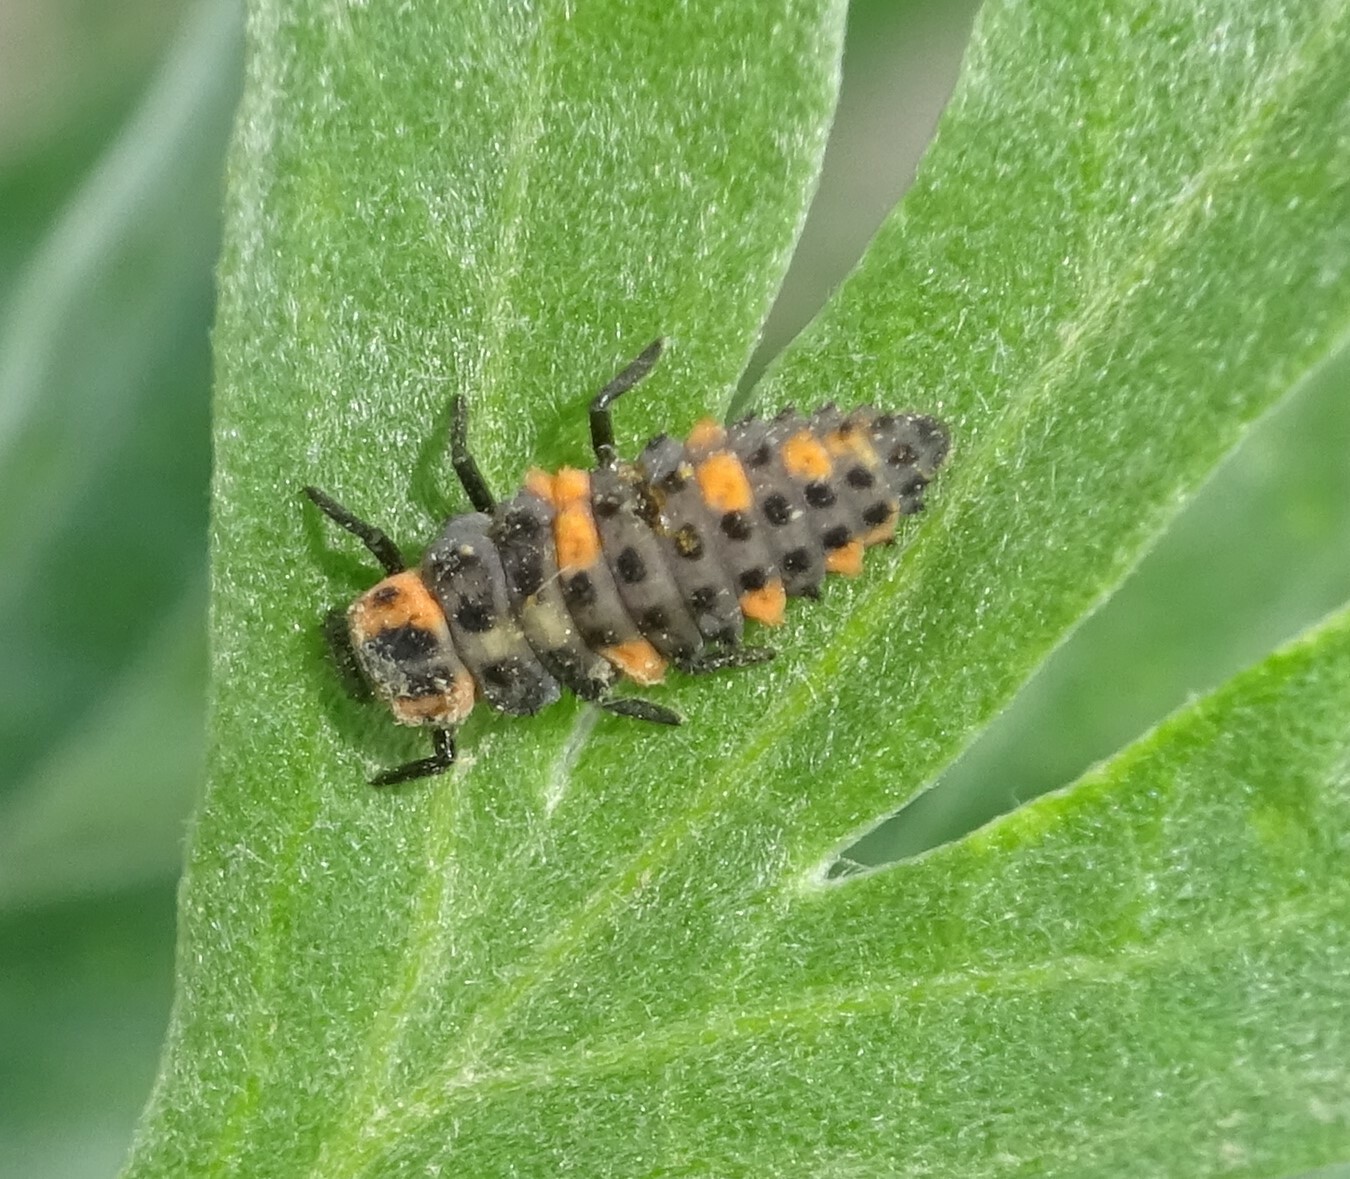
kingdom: Animalia
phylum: Arthropoda
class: Insecta
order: Coleoptera
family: Coccinellidae
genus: Coccinella
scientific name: Coccinella quinquepunctata
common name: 5-spot ladybird
